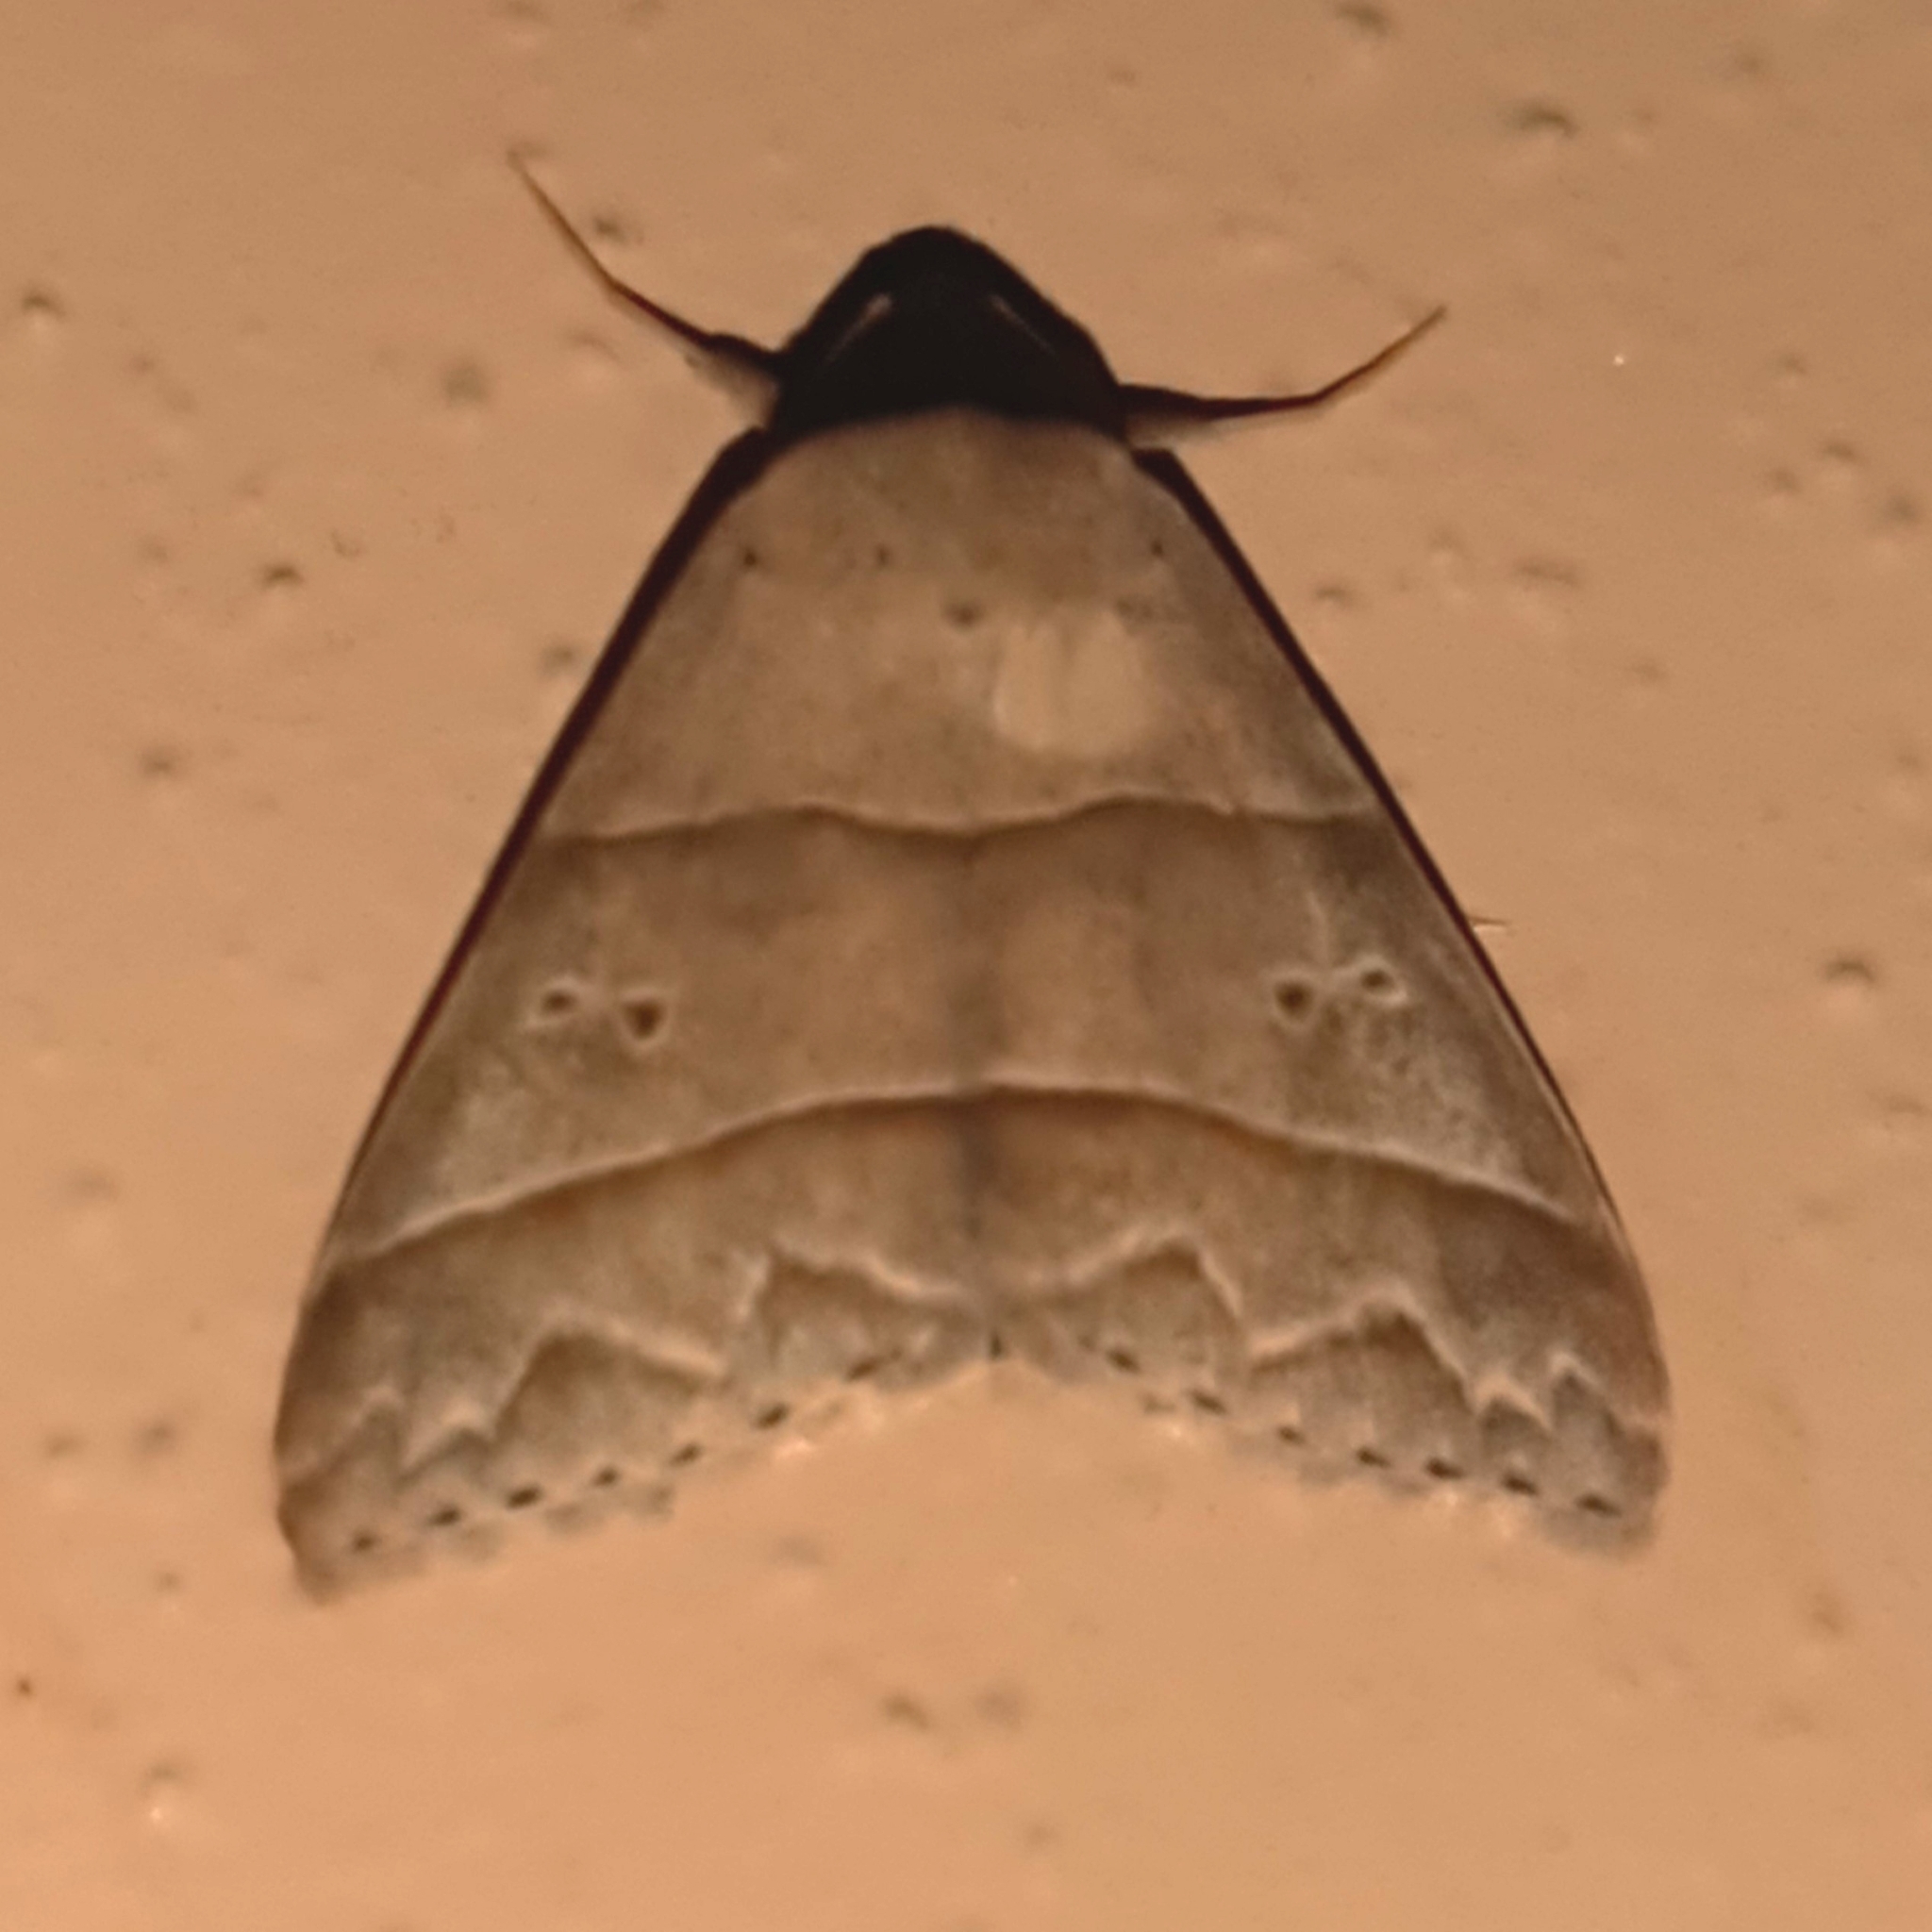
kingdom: Animalia
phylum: Arthropoda
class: Insecta
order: Lepidoptera
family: Erebidae
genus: Baniana
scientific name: Baniana ostia
